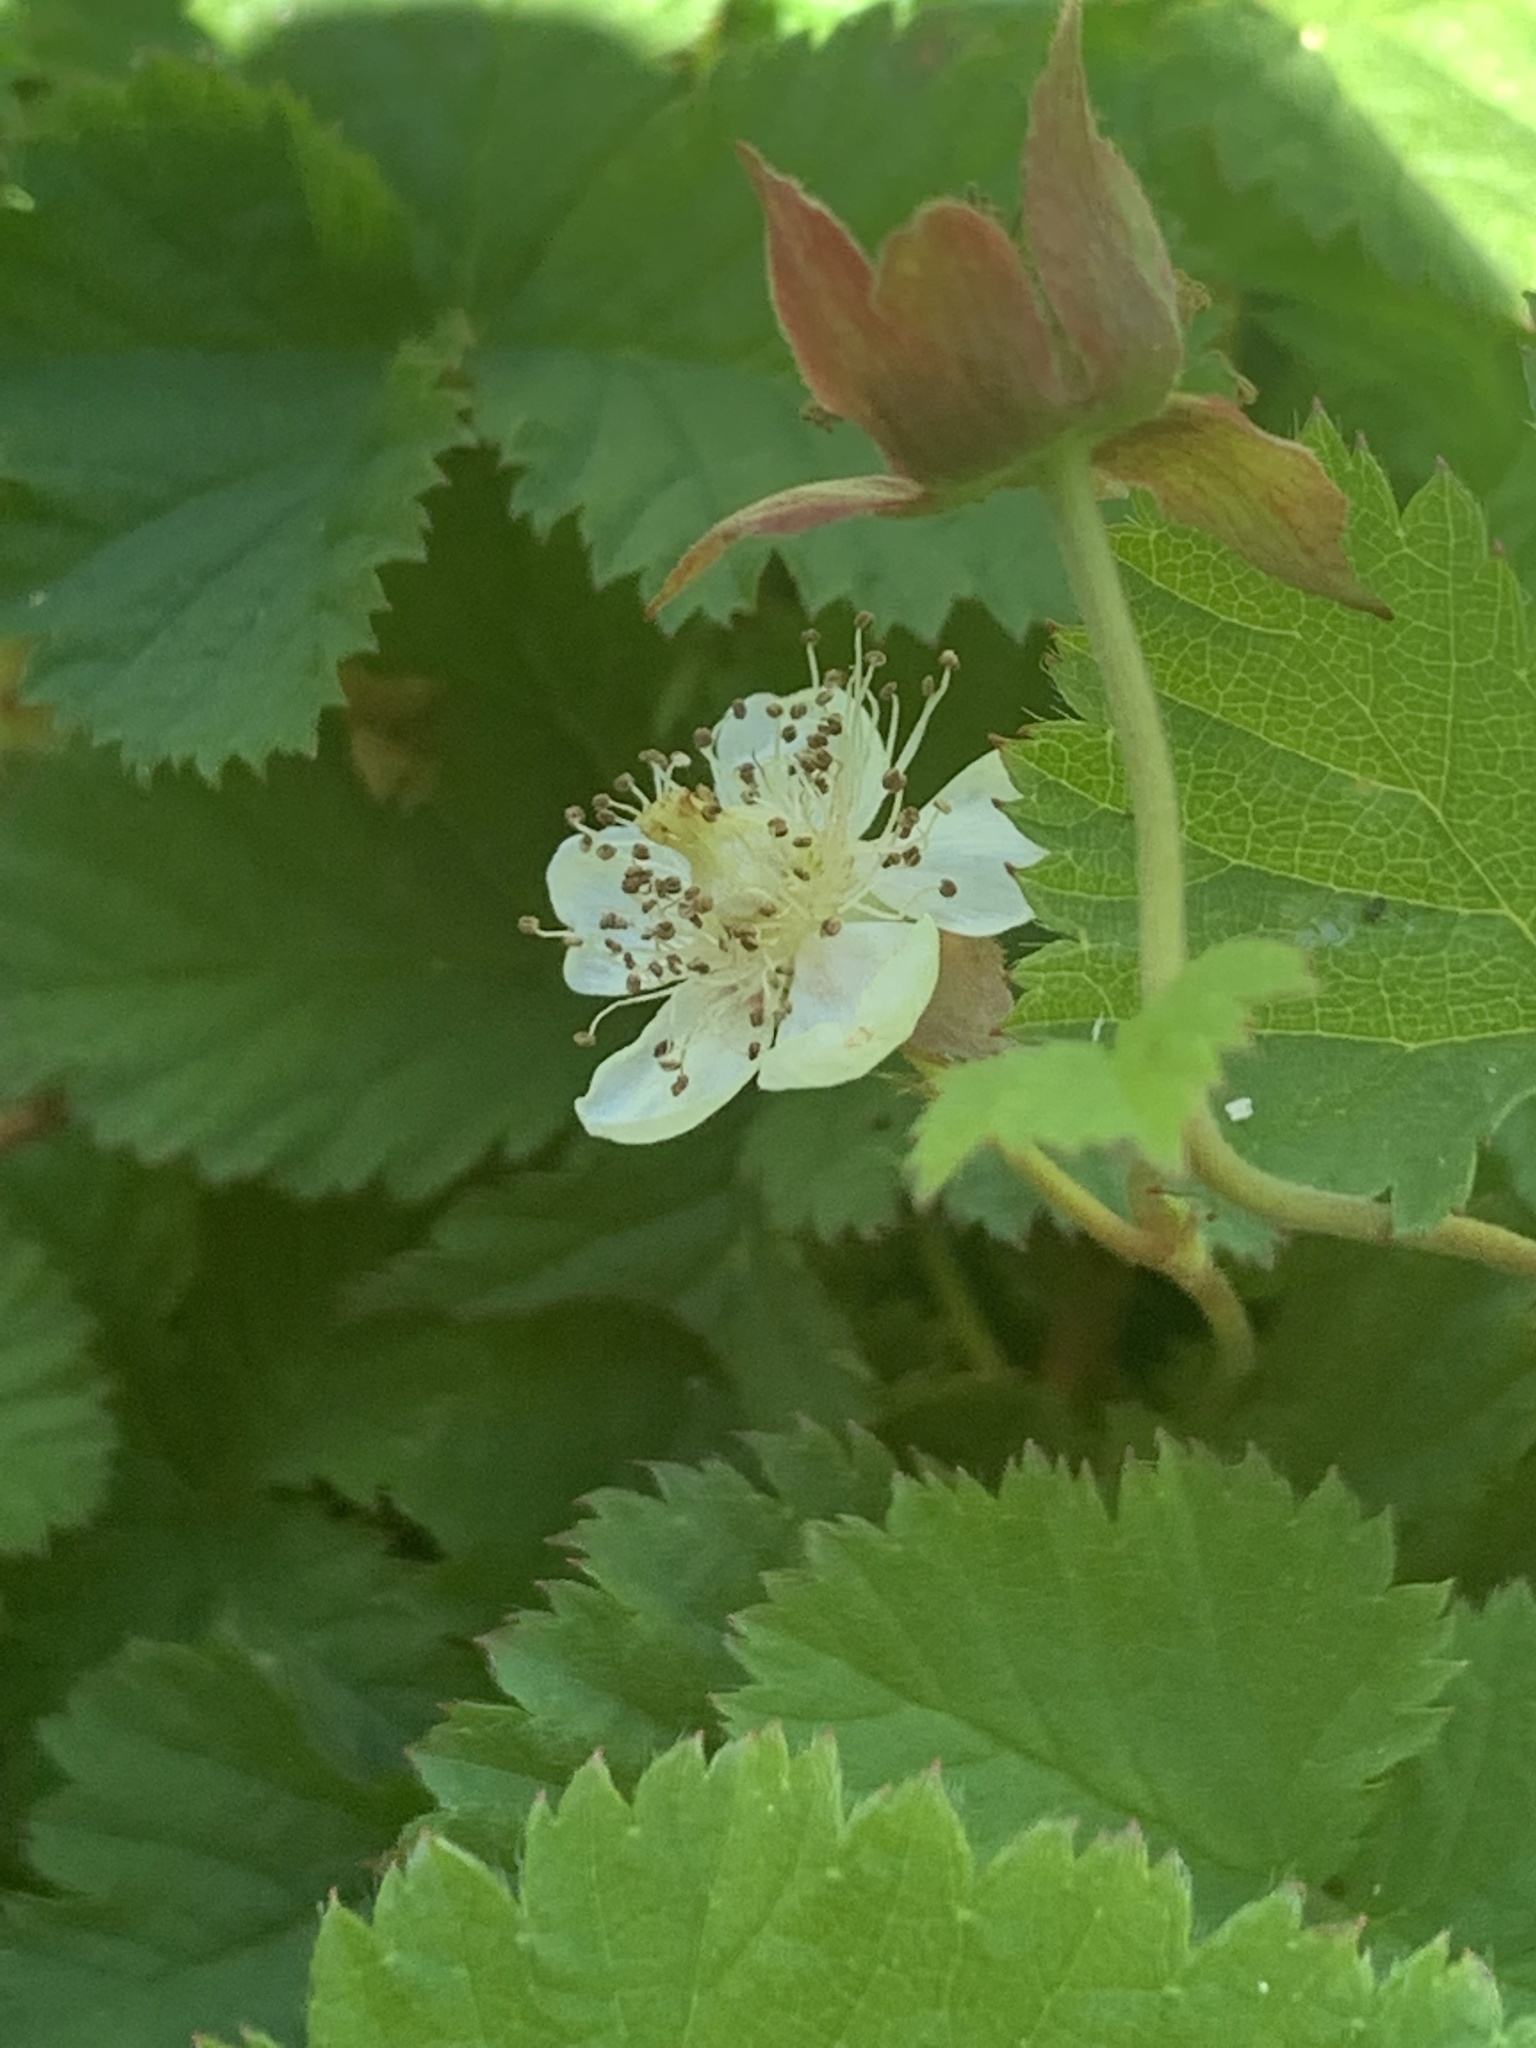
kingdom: Plantae
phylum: Tracheophyta
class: Magnoliopsida
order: Rosales
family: Rosaceae
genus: Rubus
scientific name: Rubus lasiococcus
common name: Dwarf bramble
